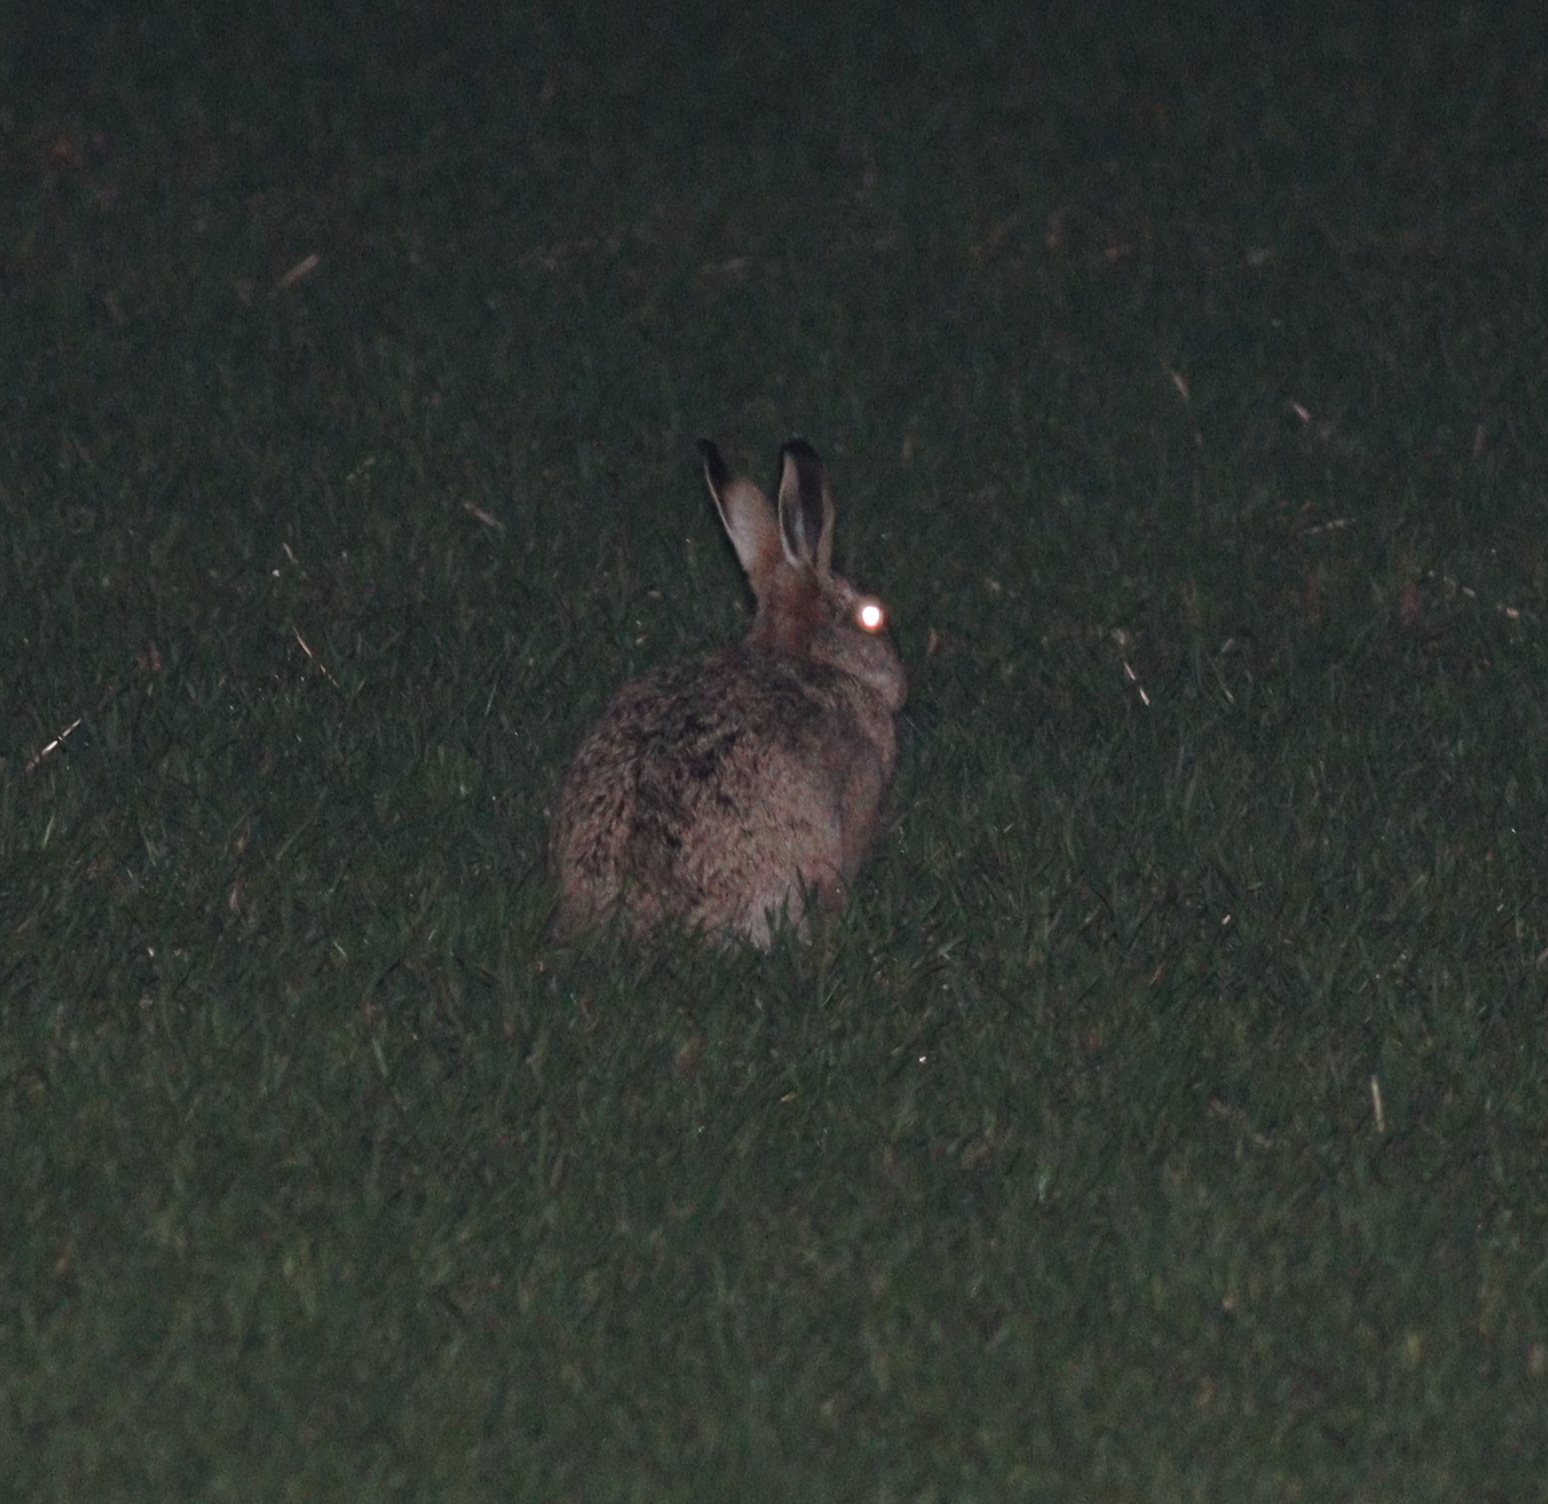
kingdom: Animalia
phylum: Chordata
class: Mammalia
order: Lagomorpha
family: Leporidae
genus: Lepus
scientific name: Lepus europaeus
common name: European hare
